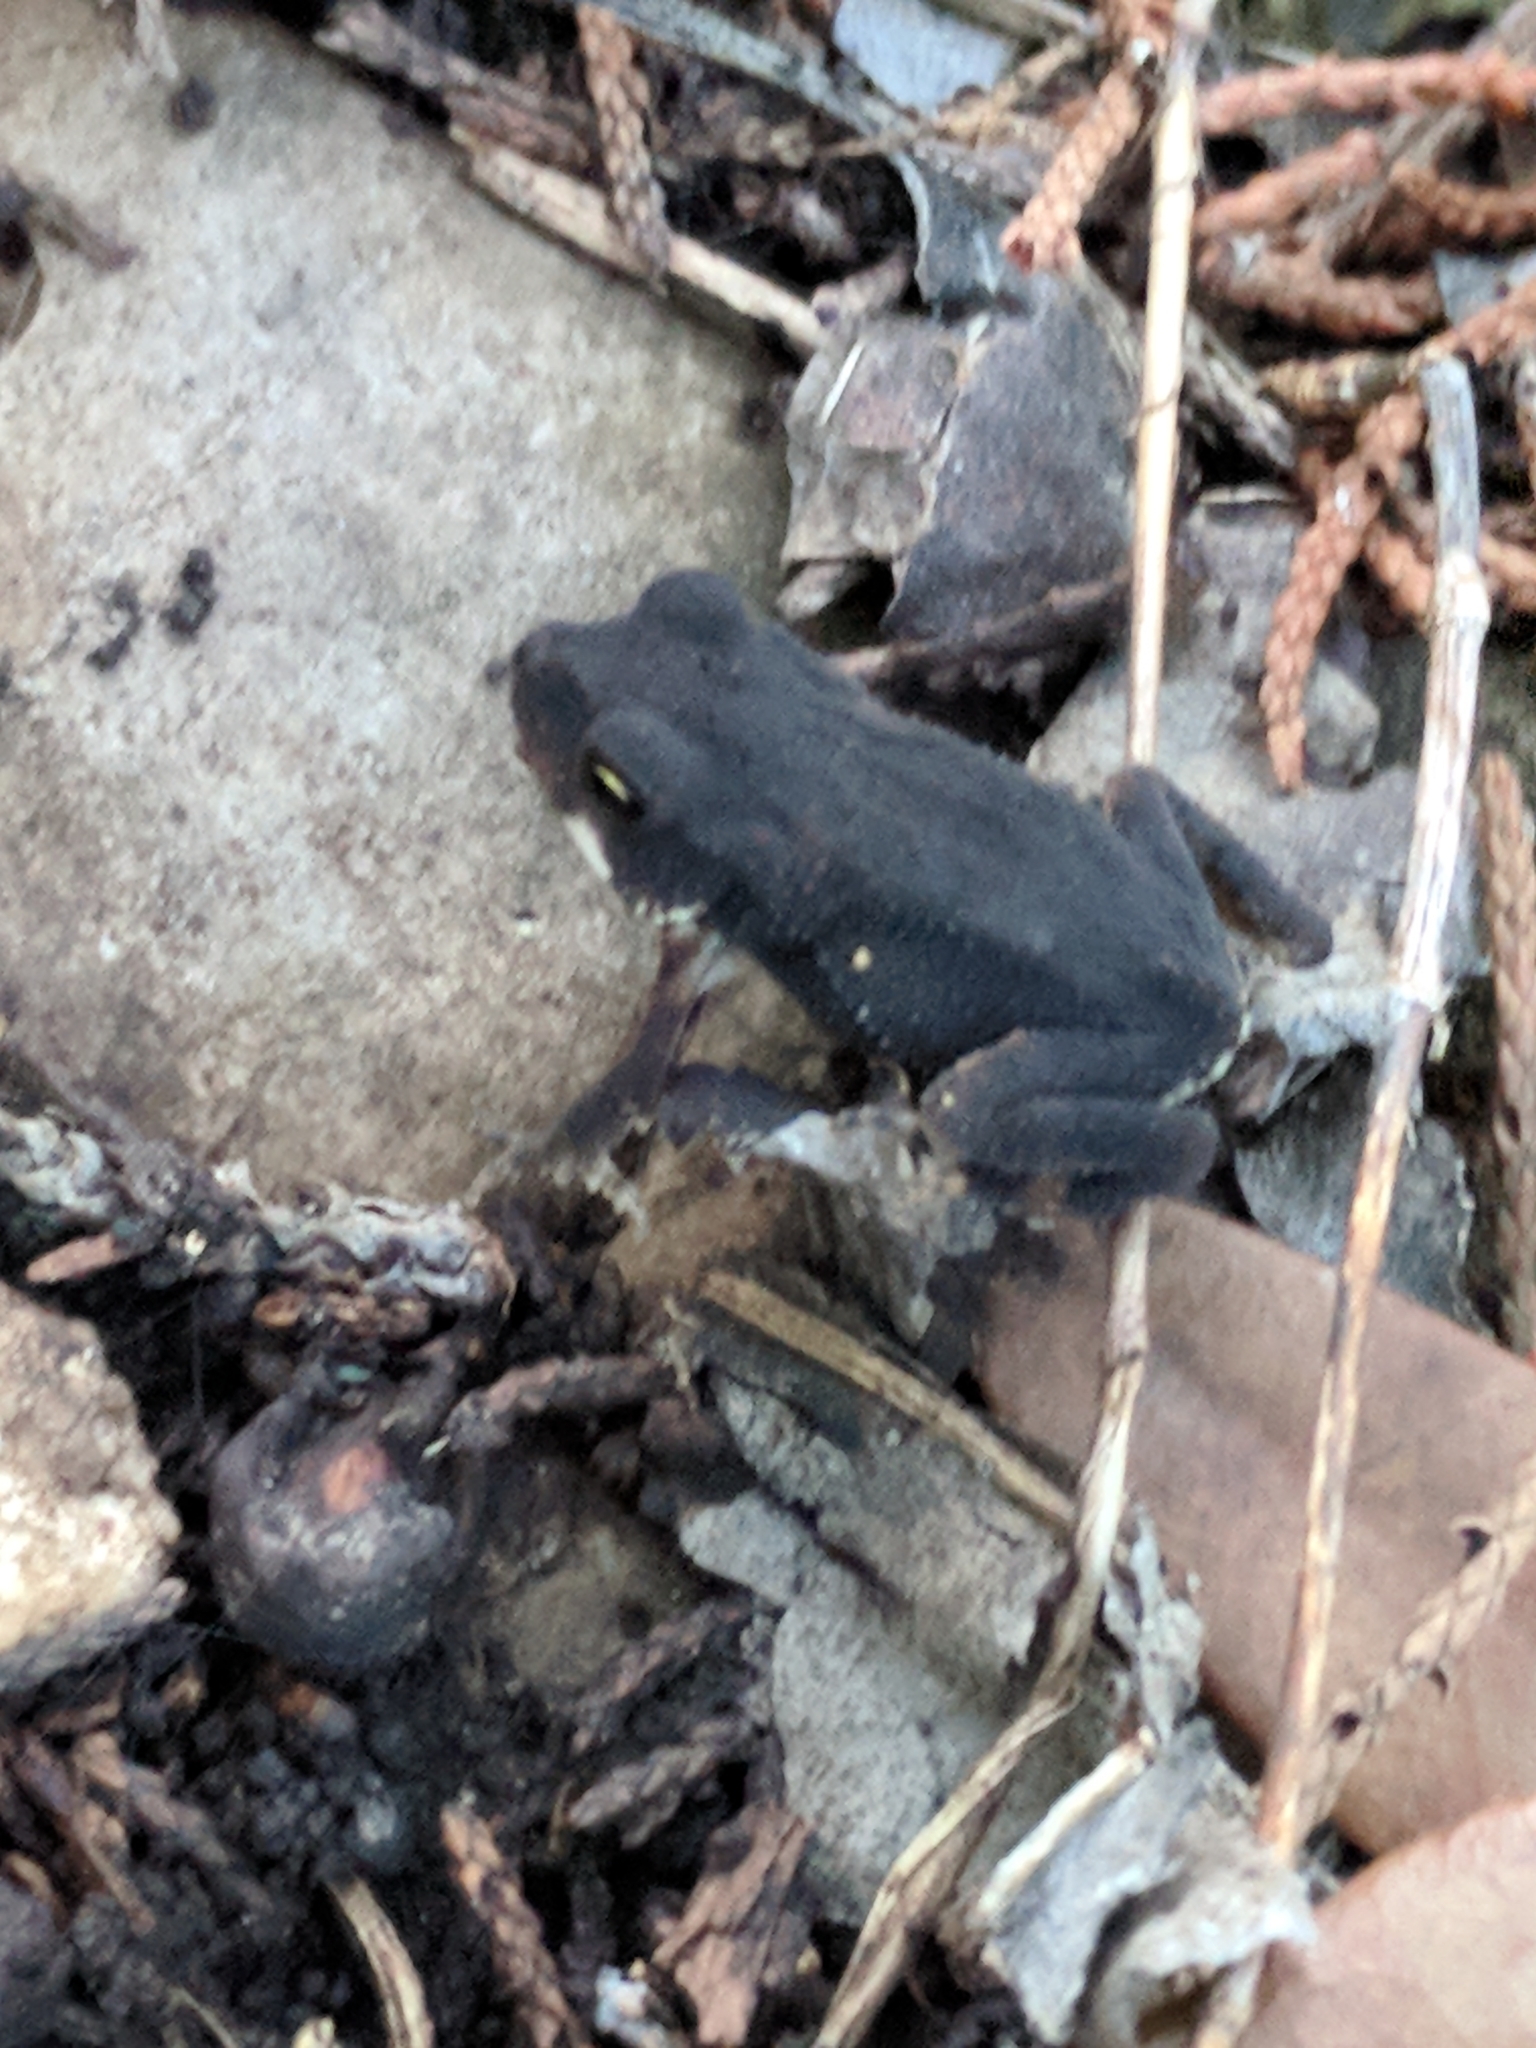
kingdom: Animalia
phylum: Chordata
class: Amphibia
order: Anura
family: Bufonidae
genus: Incilius
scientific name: Incilius nebulifer
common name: Gulf coast toad
